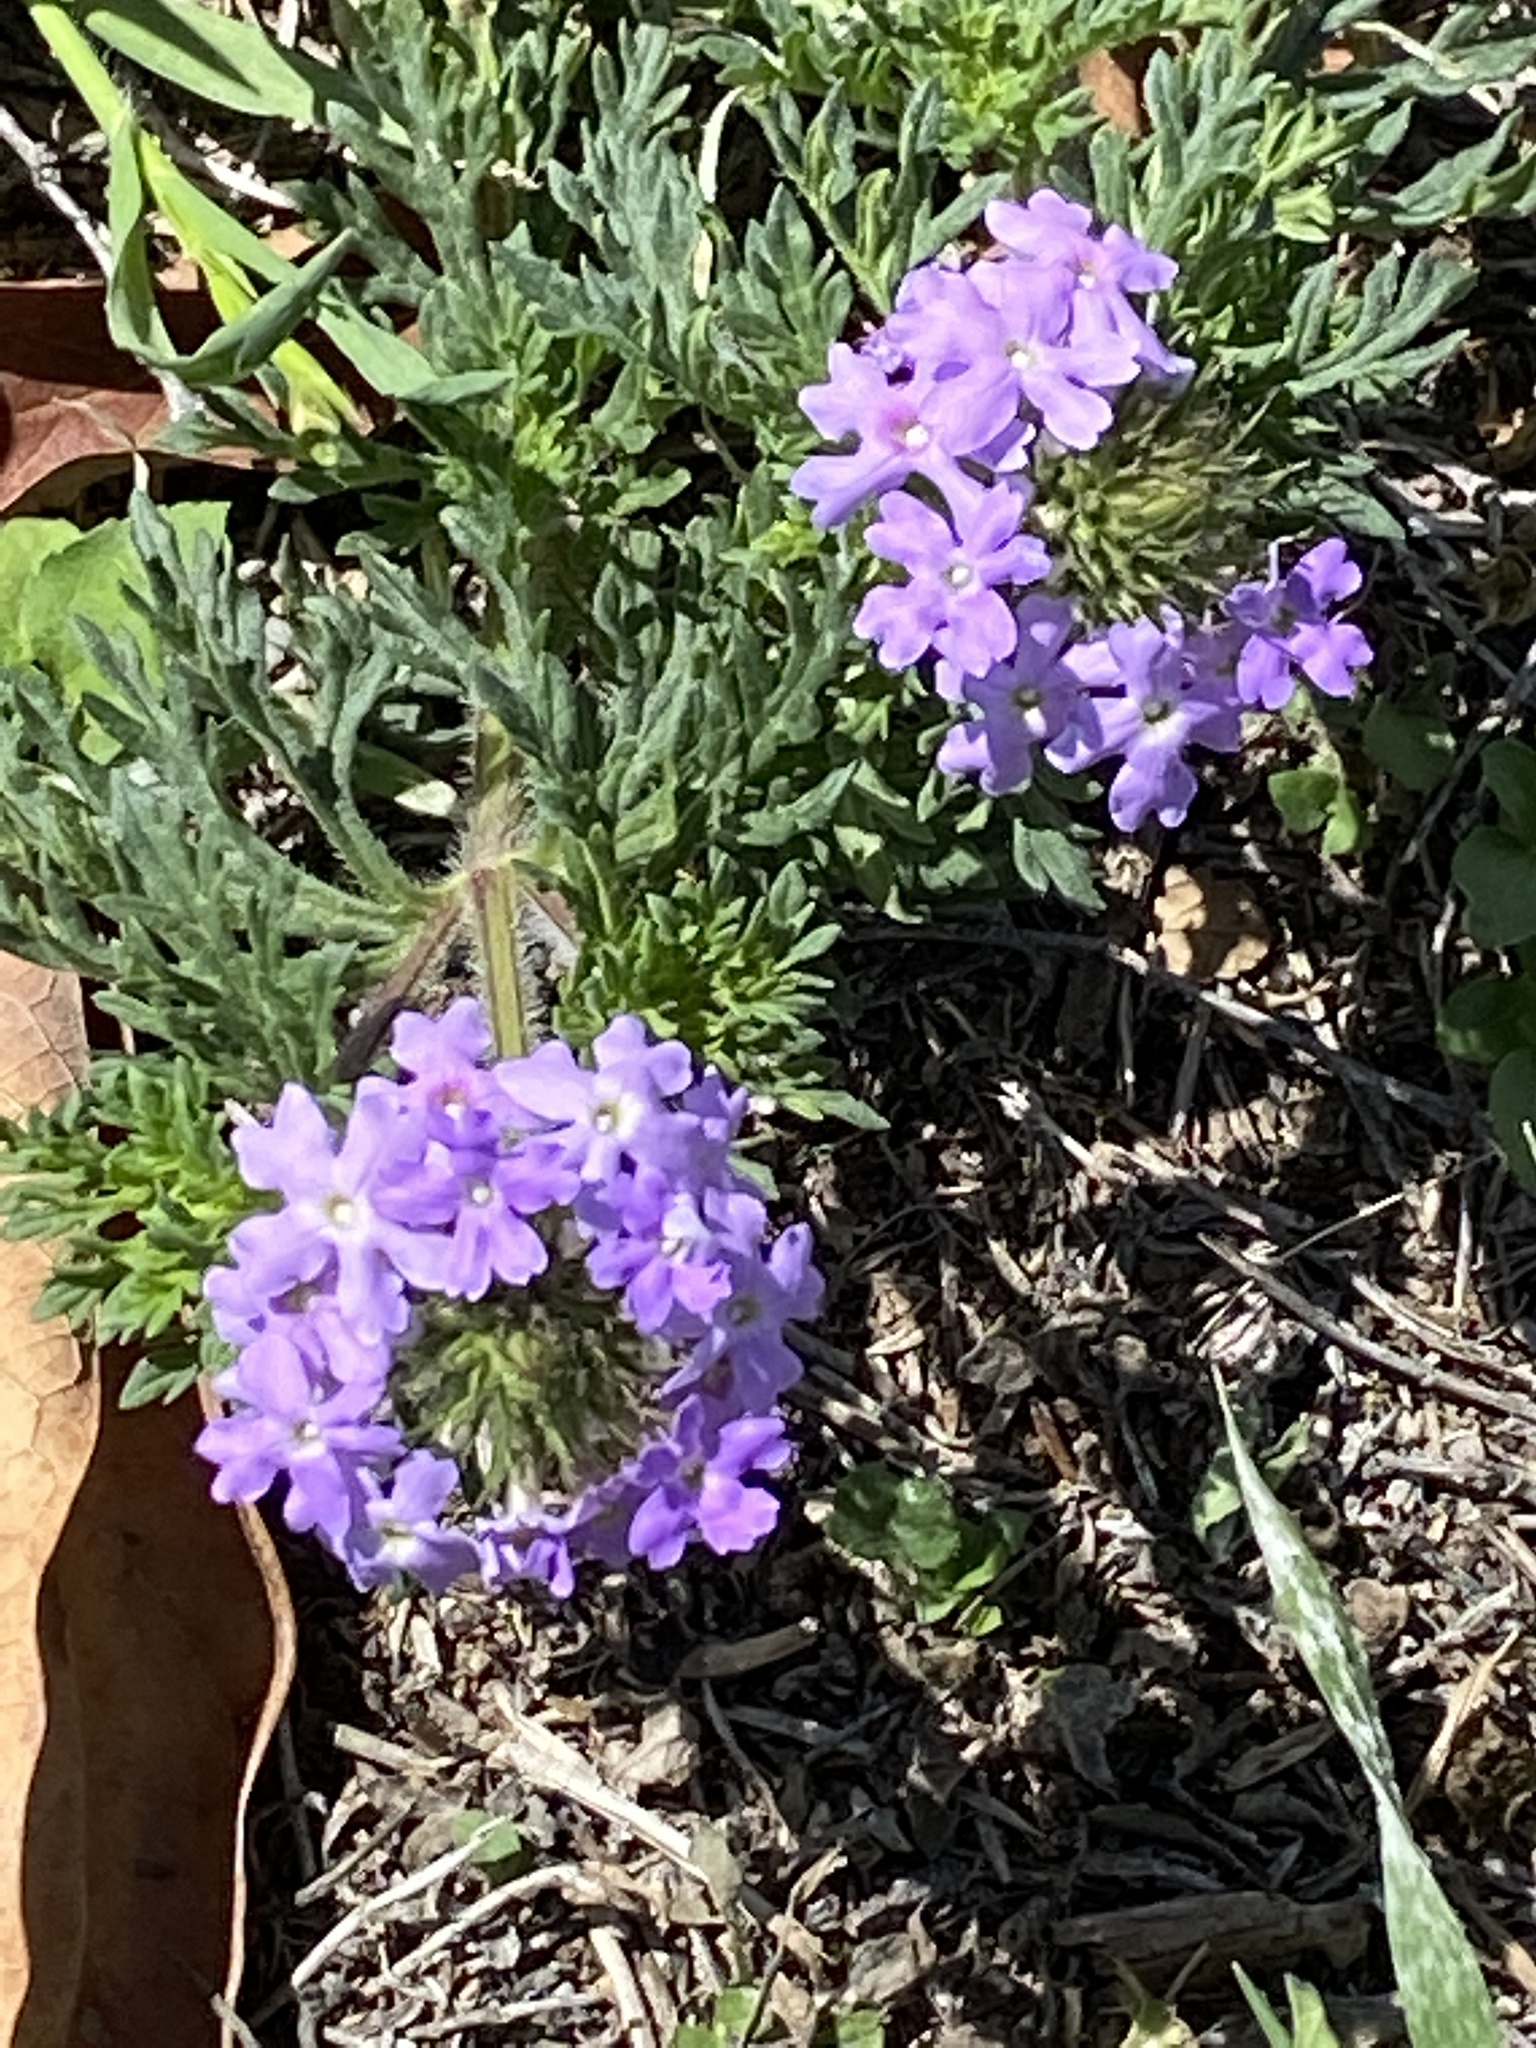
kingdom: Plantae
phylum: Tracheophyta
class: Magnoliopsida
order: Lamiales
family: Verbenaceae
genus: Verbena
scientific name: Verbena bipinnatifida
